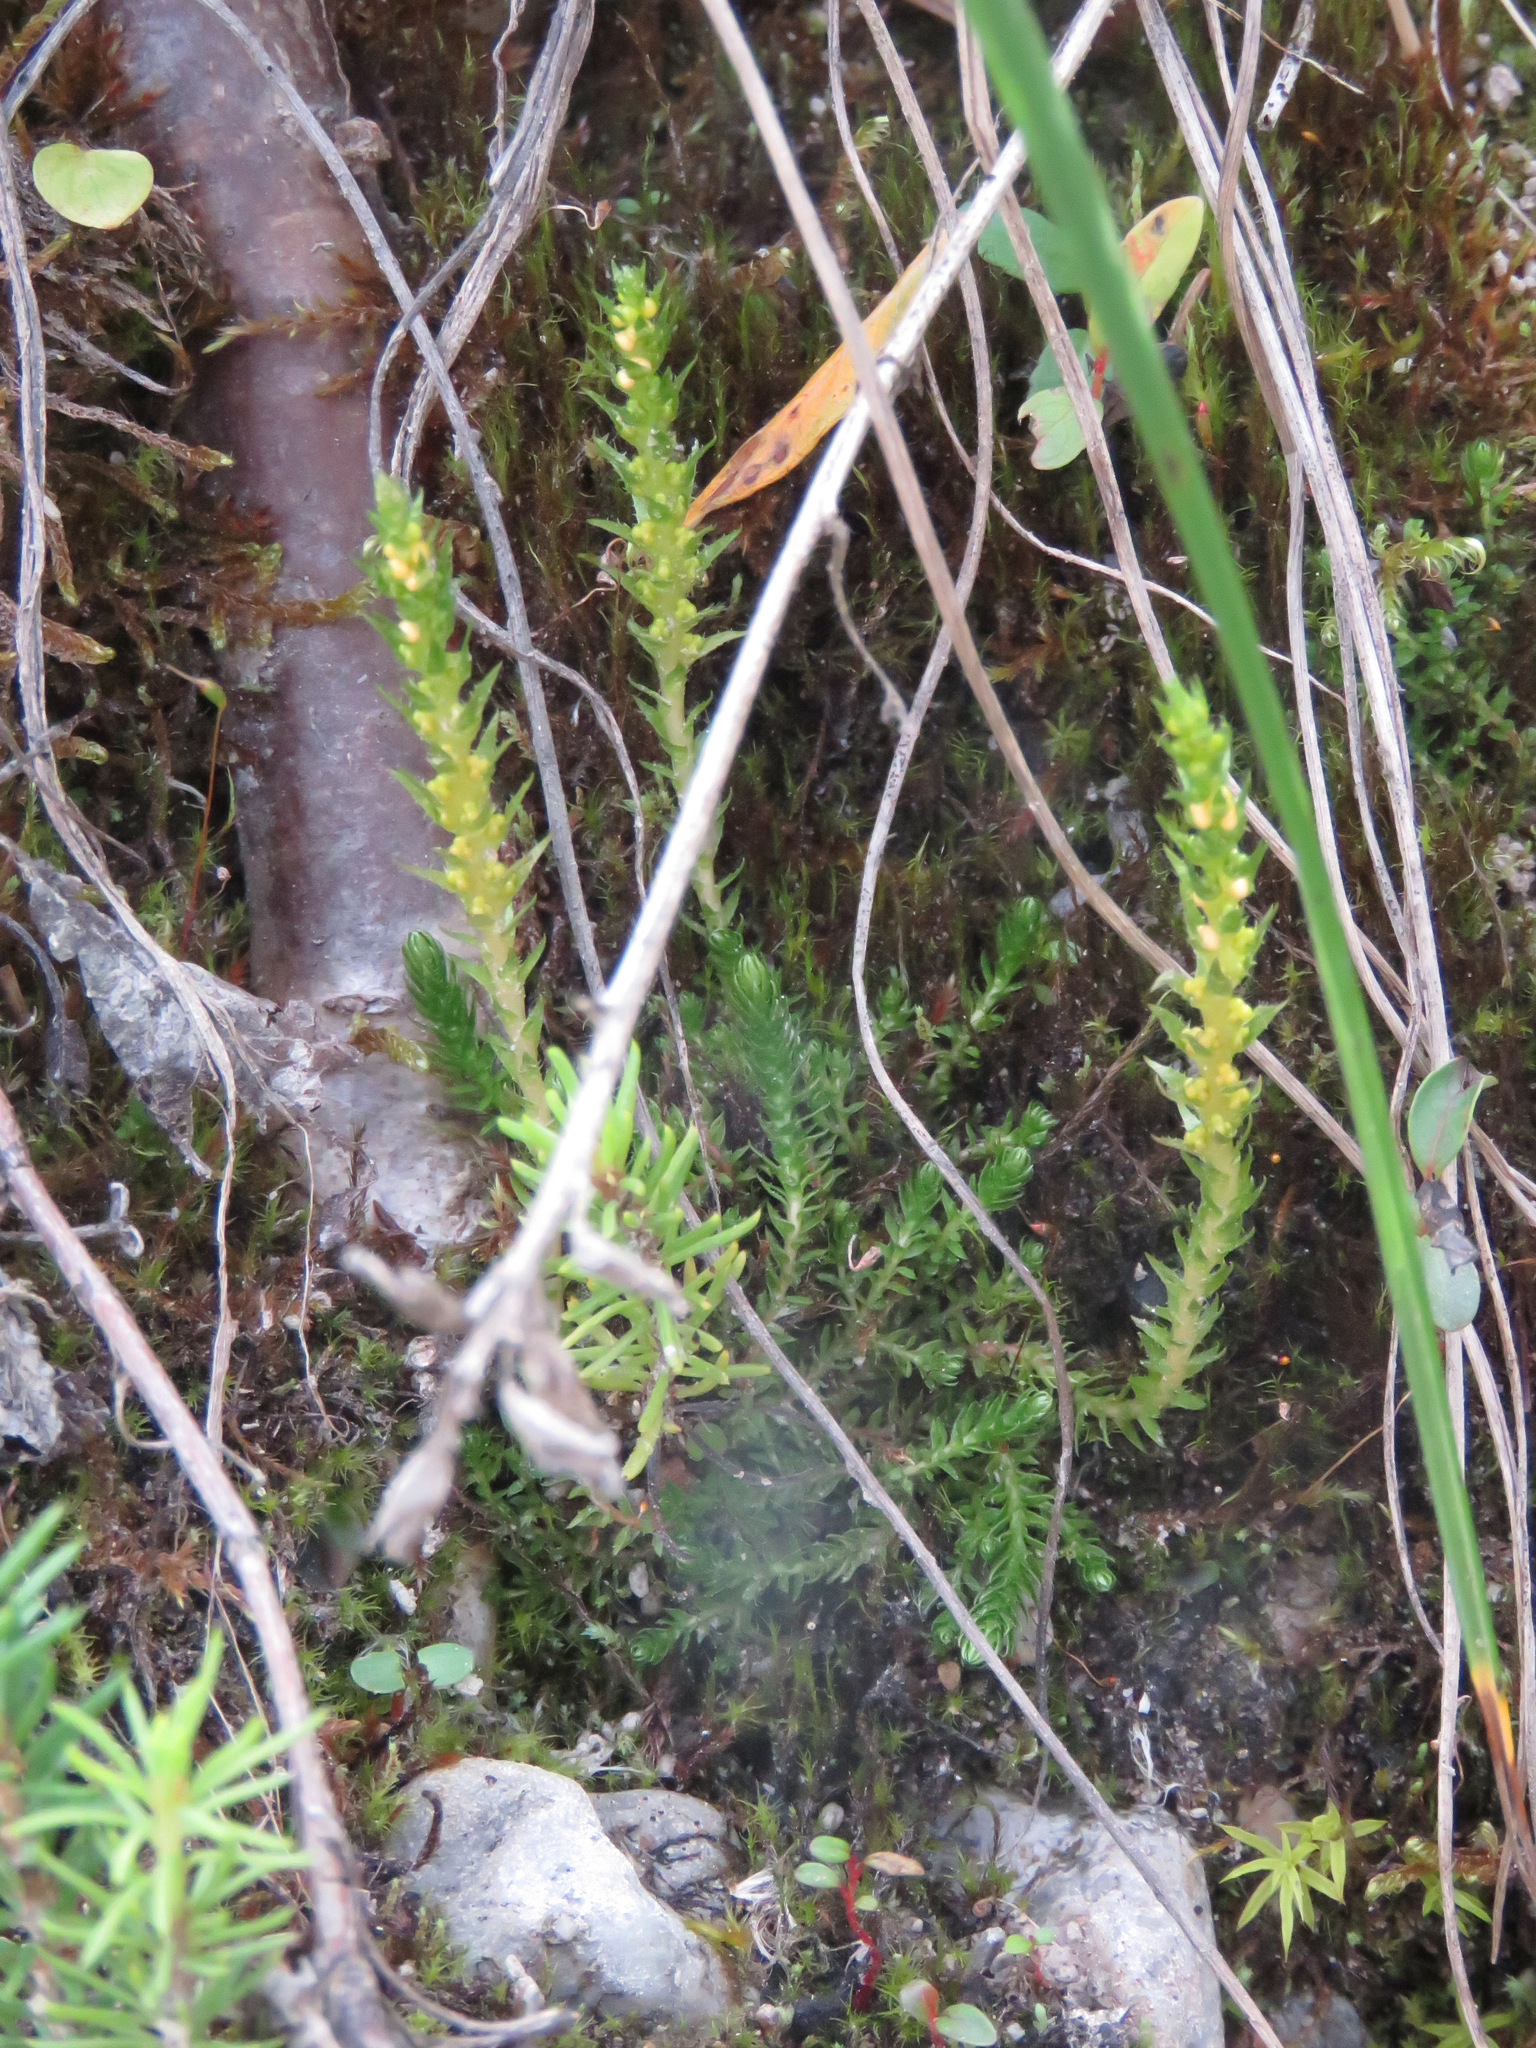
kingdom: Plantae
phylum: Tracheophyta
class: Lycopodiopsida
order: Selaginellales
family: Selaginellaceae
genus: Selaginella
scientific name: Selaginella selaginoides
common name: Prickly mountain-moss
